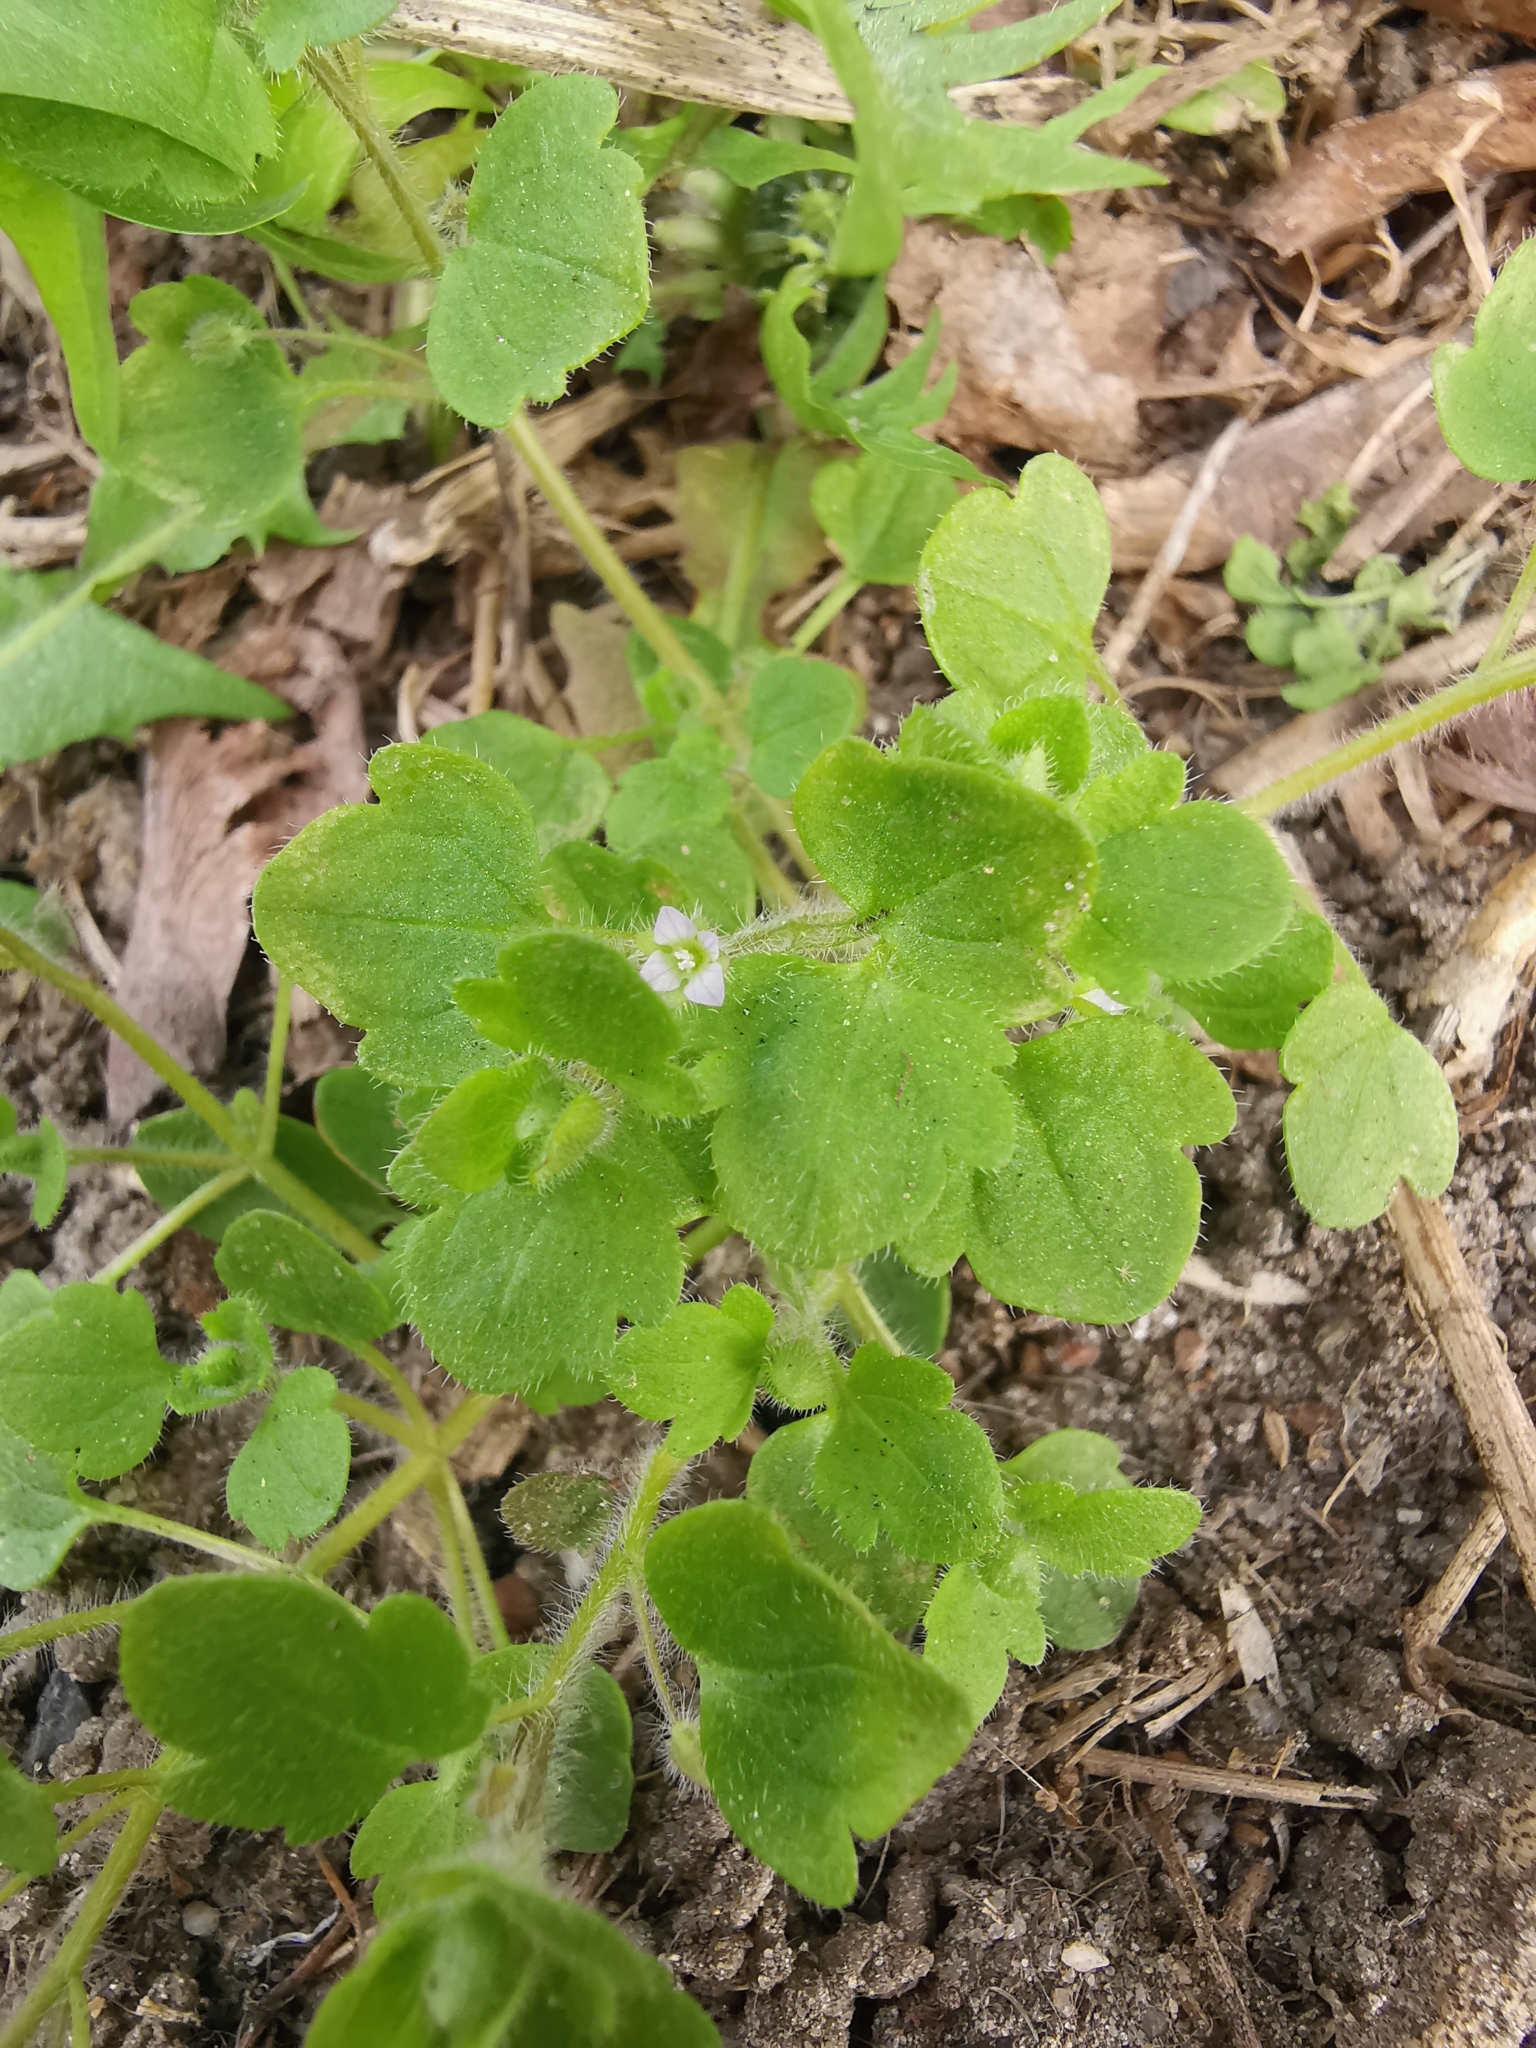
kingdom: Plantae
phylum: Tracheophyta
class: Magnoliopsida
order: Lamiales
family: Plantaginaceae
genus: Veronica
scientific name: Veronica sublobata
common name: False ivy-leaved speedwell
